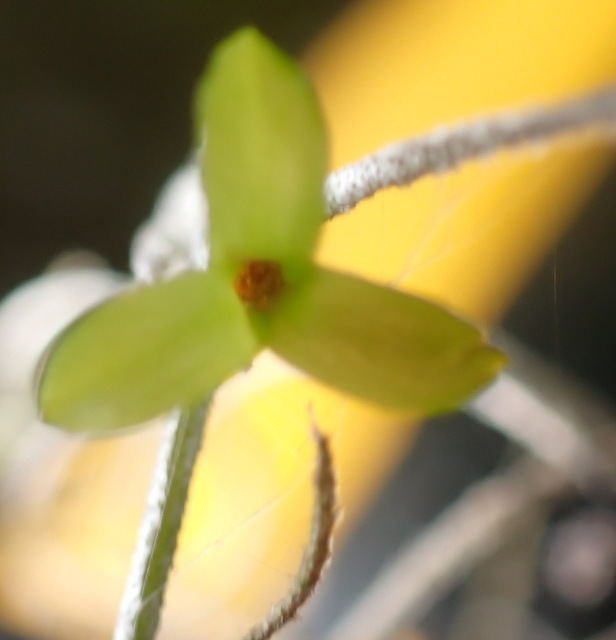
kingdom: Plantae
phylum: Tracheophyta
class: Liliopsida
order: Poales
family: Bromeliaceae
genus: Tillandsia
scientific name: Tillandsia usneoides
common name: Spanish moss
